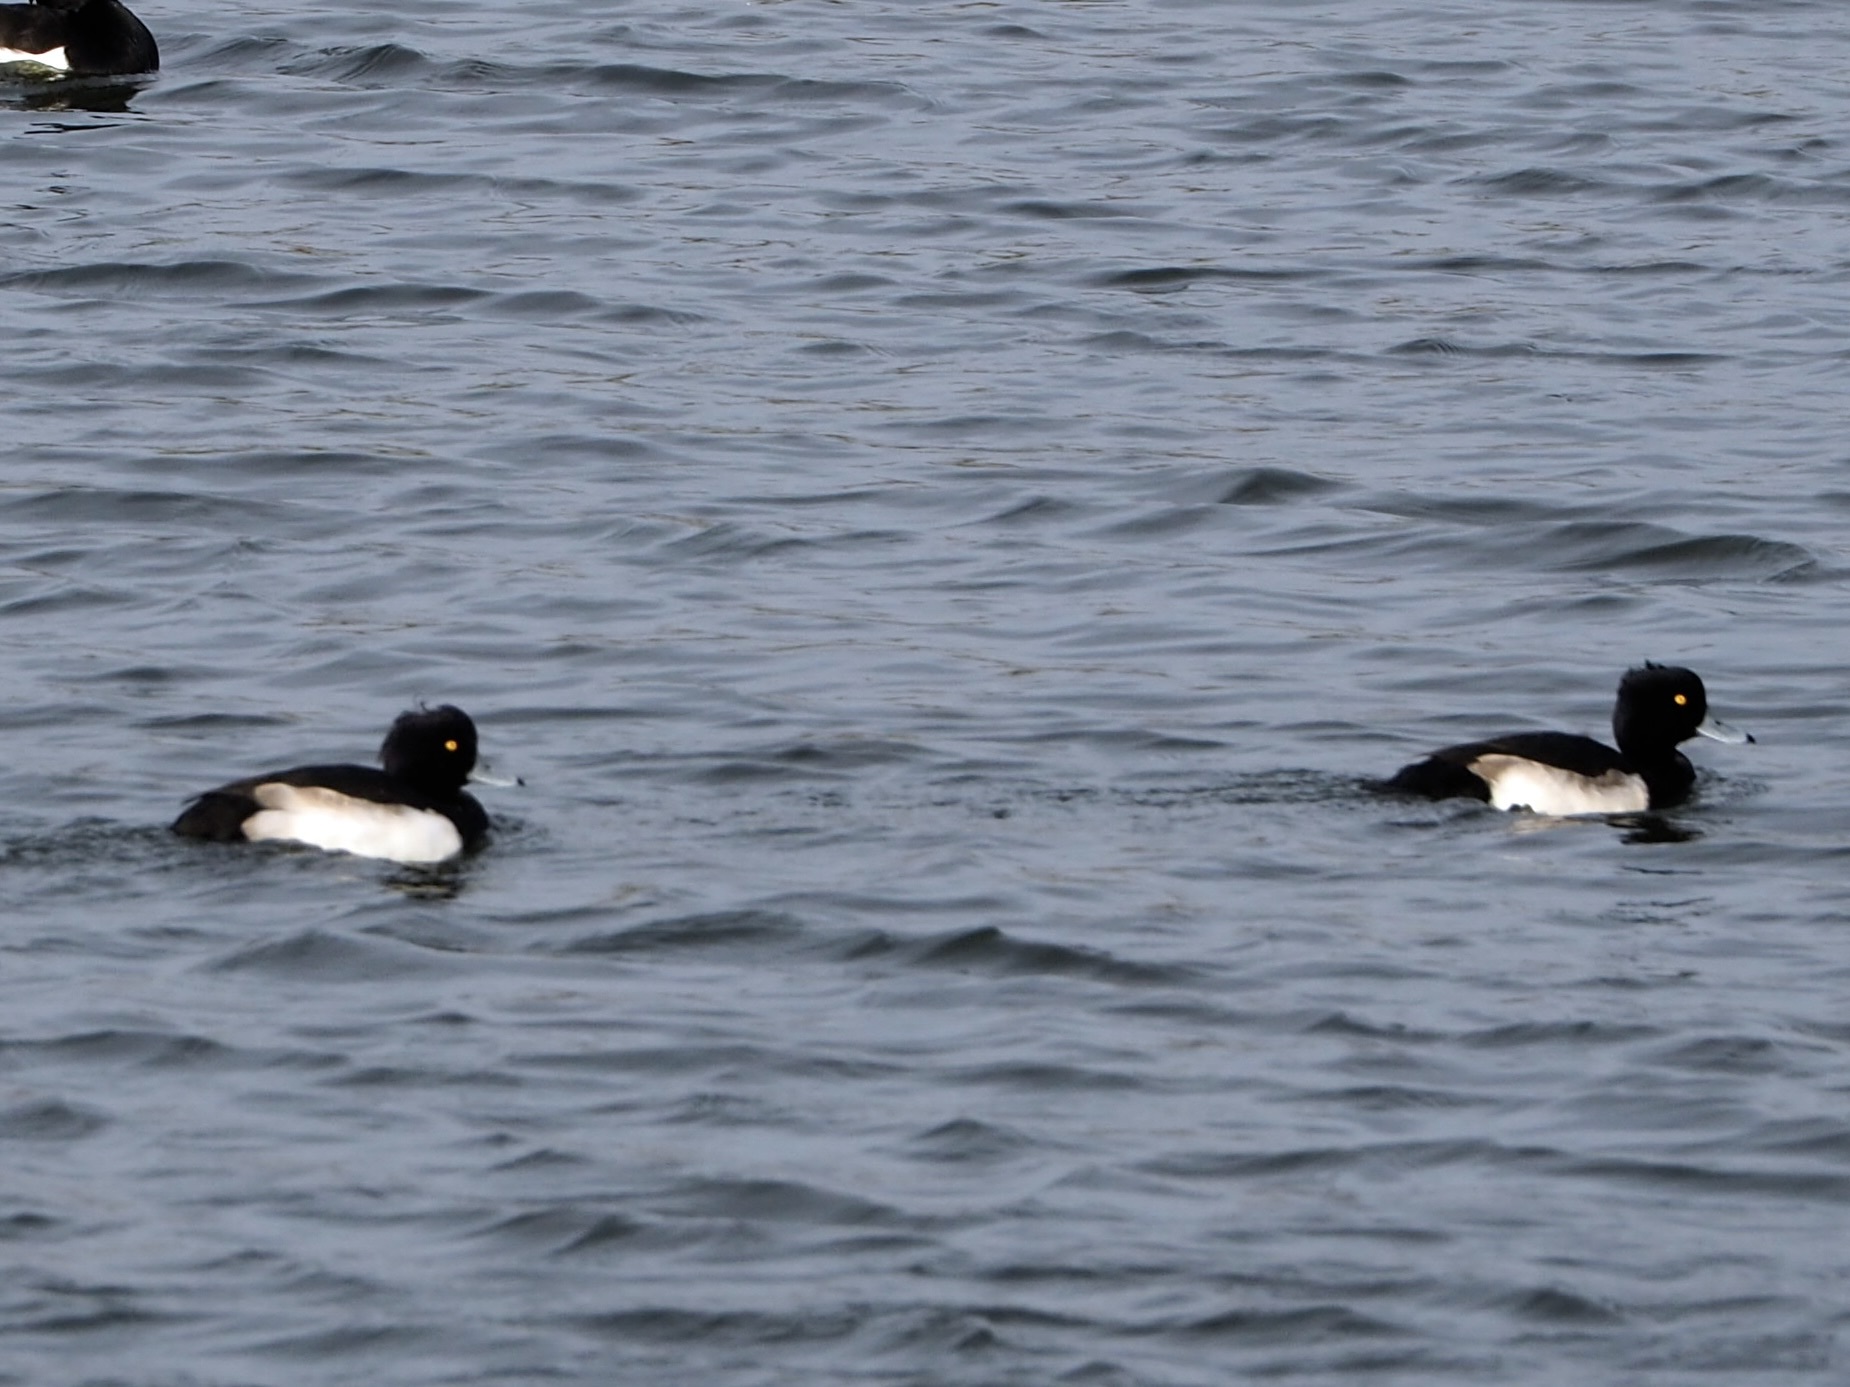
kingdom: Animalia
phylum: Chordata
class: Aves
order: Anseriformes
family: Anatidae
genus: Aythya
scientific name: Aythya fuligula
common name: Tufted duck
